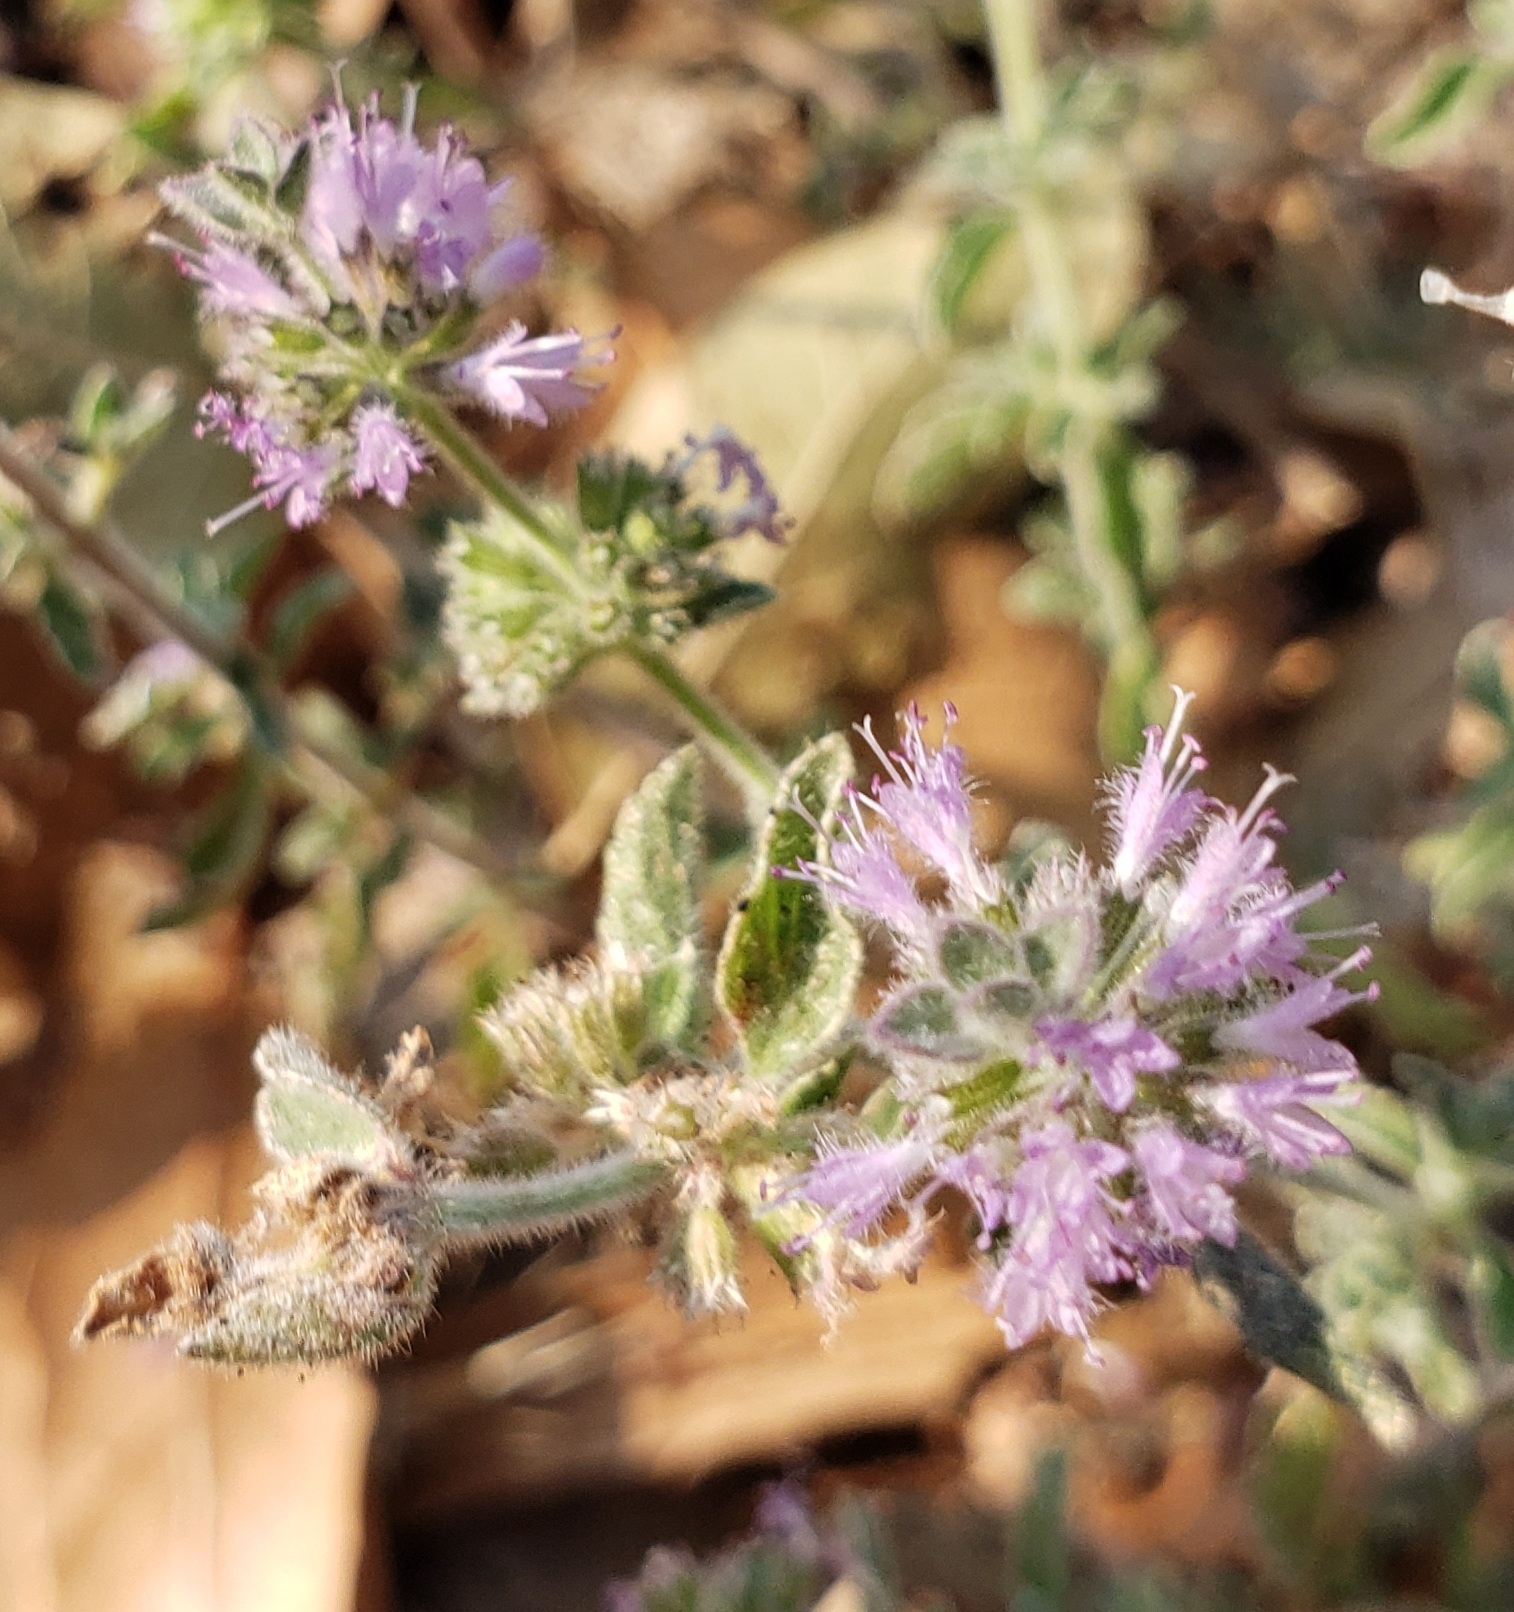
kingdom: Plantae
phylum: Tracheophyta
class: Magnoliopsida
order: Lamiales
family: Lamiaceae
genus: Mentha
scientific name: Mentha pulegium
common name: Pennyroyal
